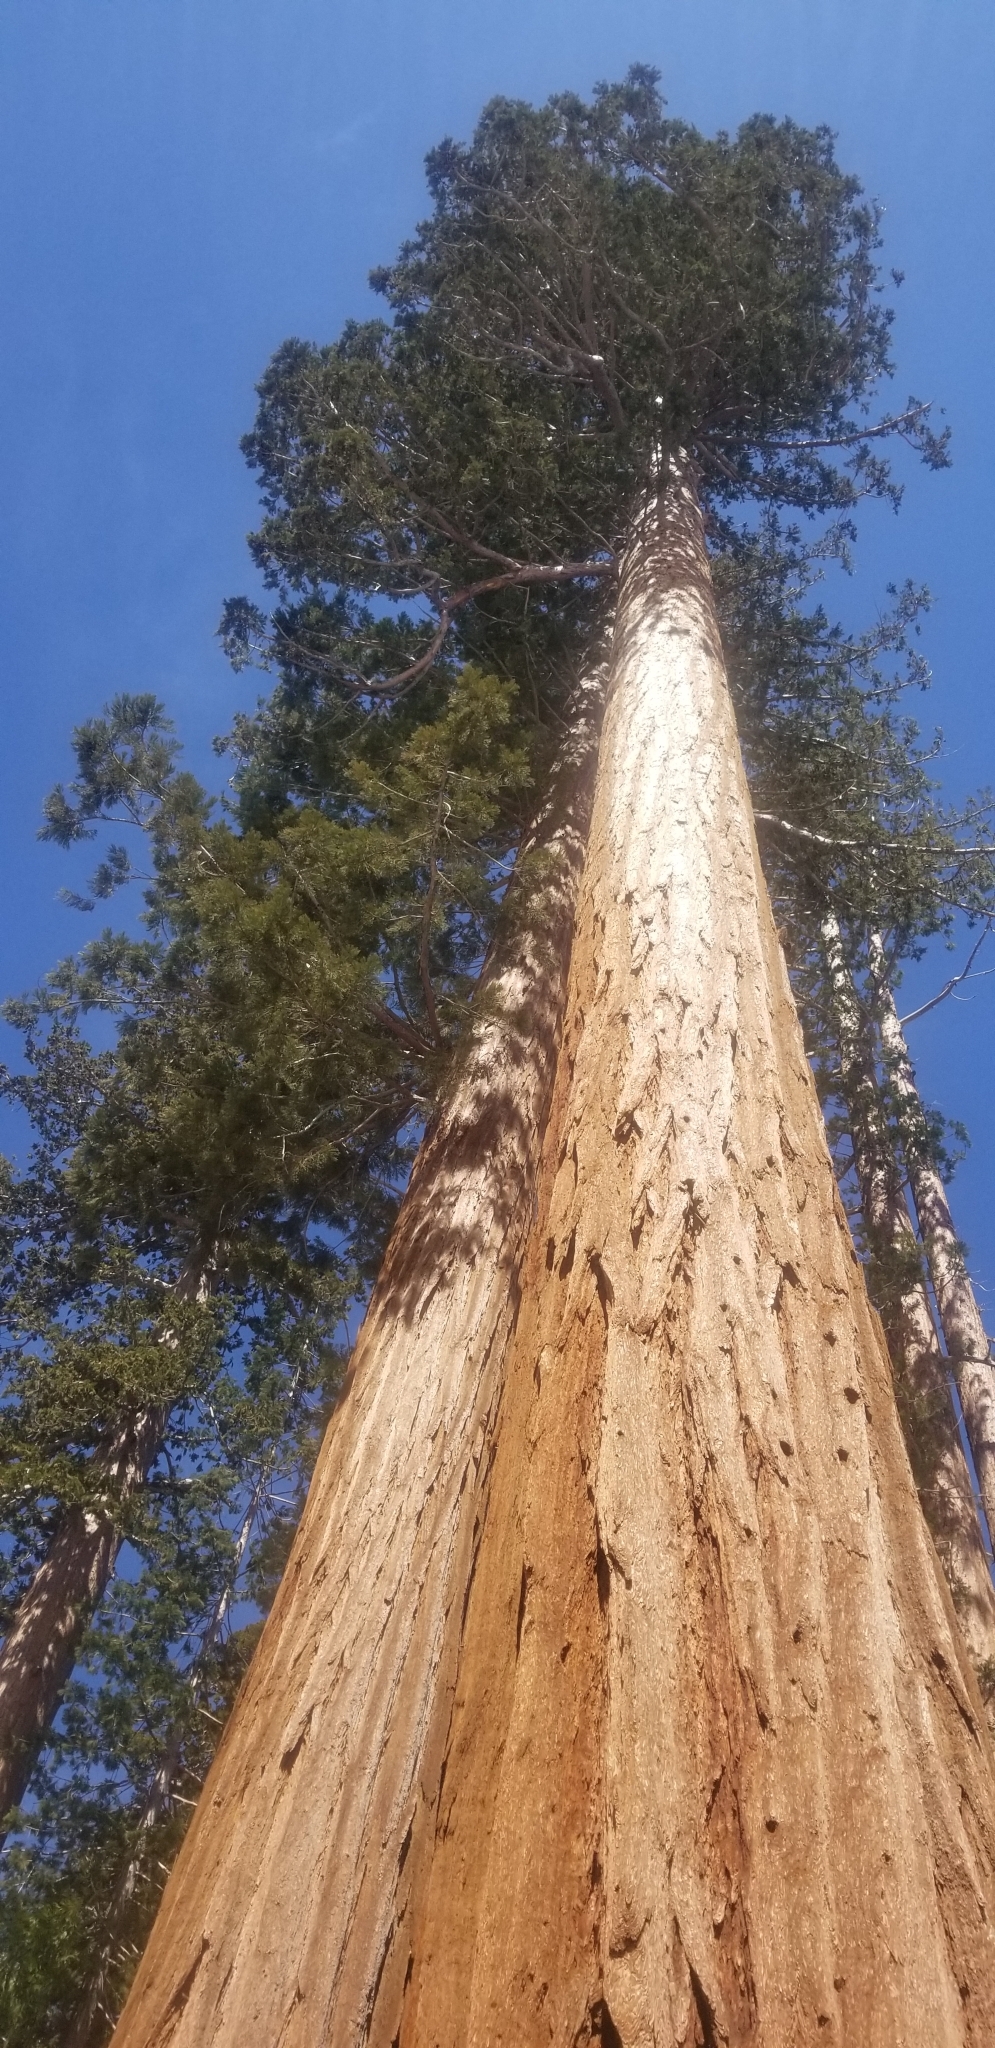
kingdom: Plantae
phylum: Tracheophyta
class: Pinopsida
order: Pinales
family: Cupressaceae
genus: Sequoiadendron
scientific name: Sequoiadendron giganteum
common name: Wellingtonia
